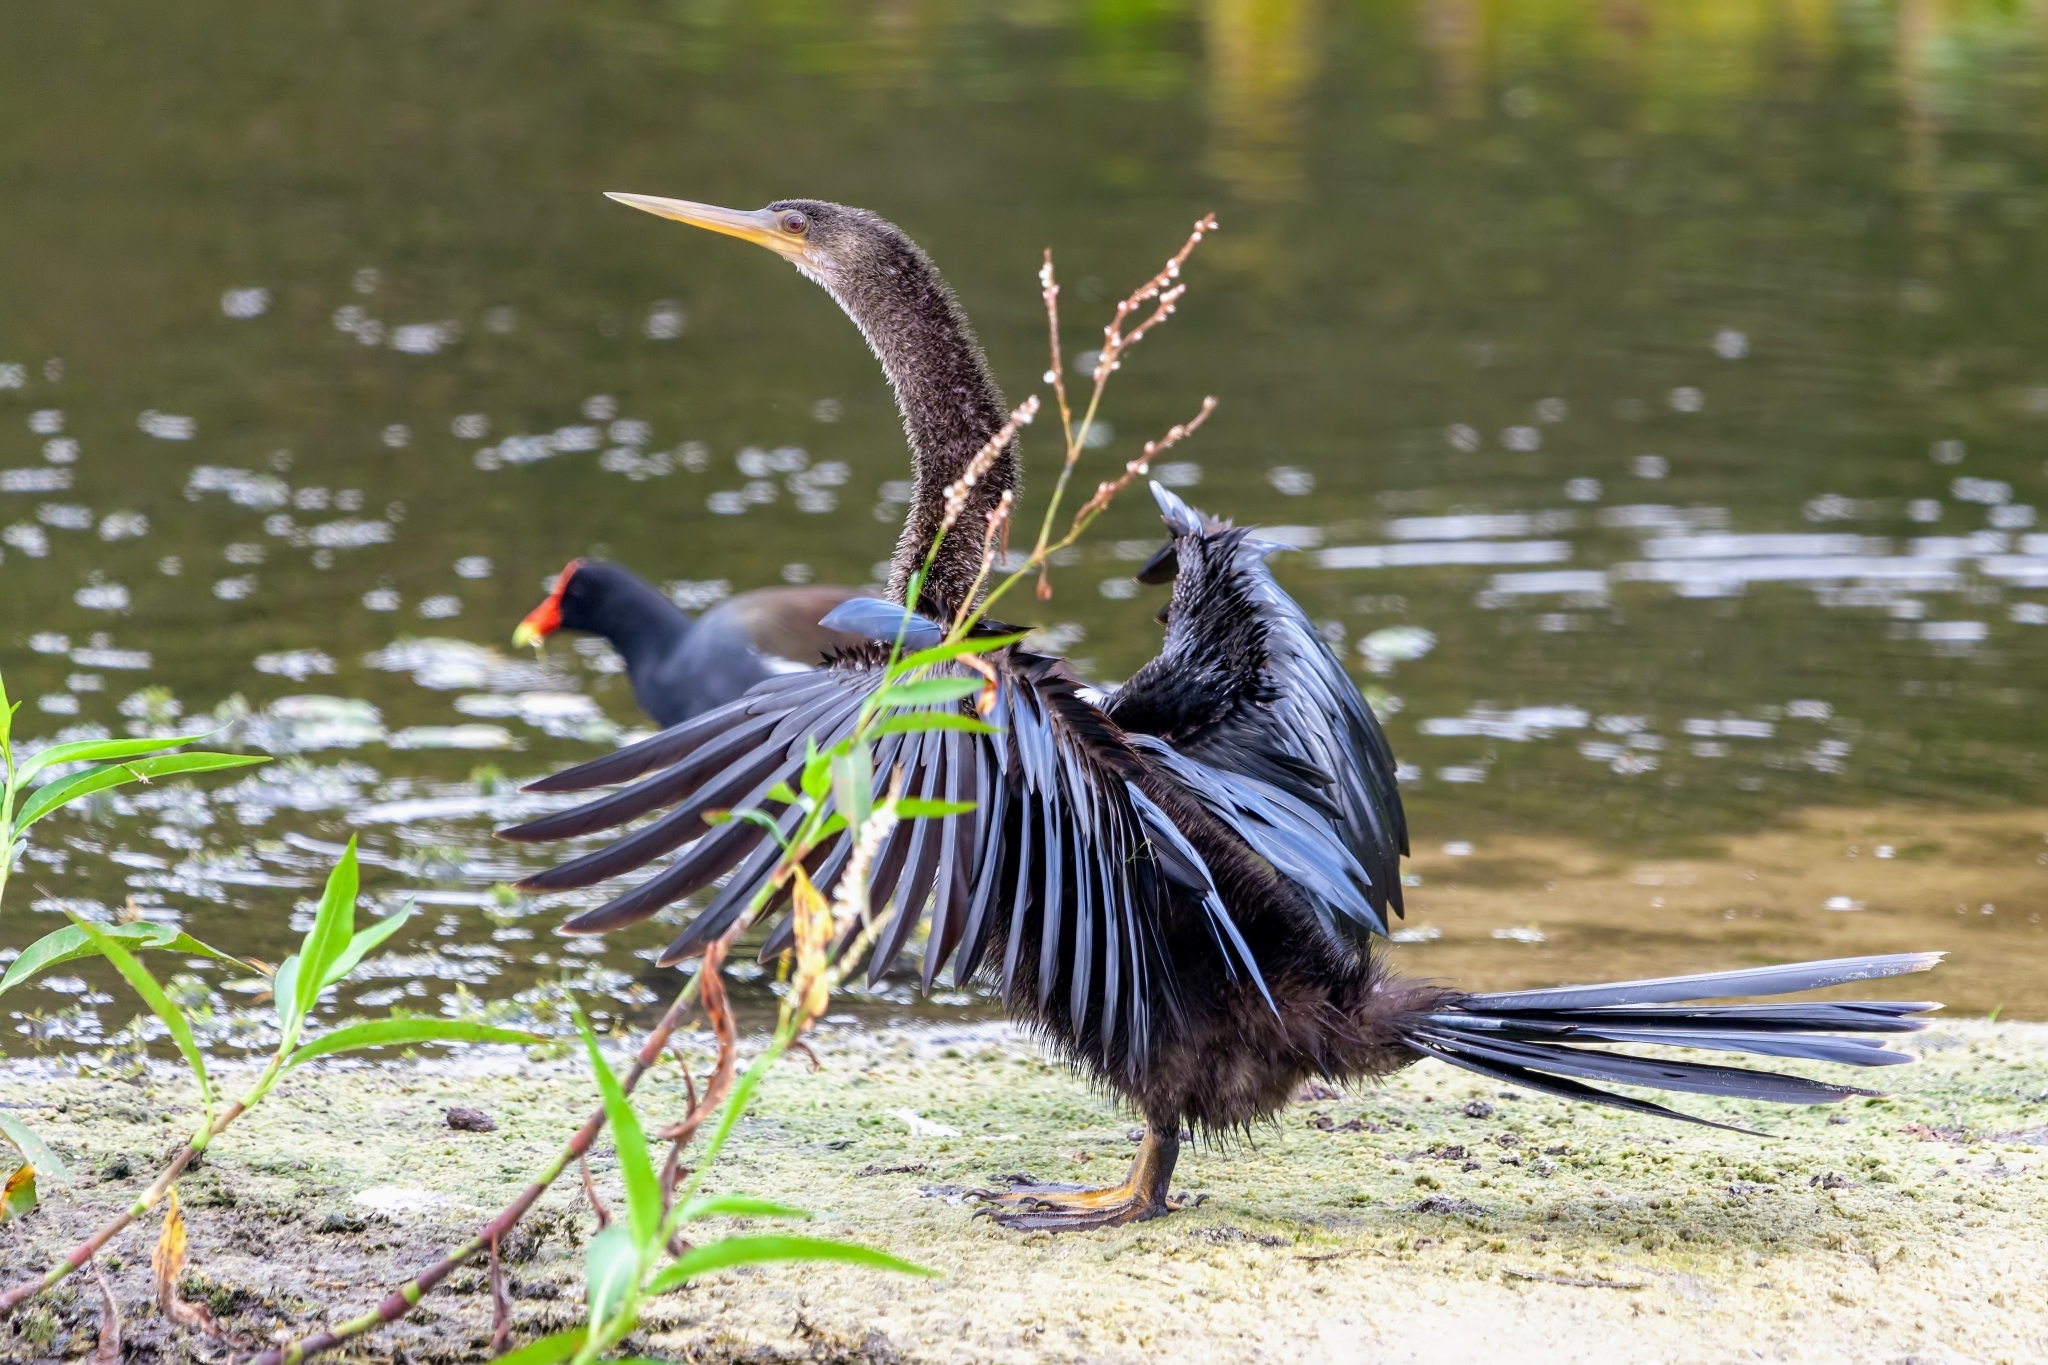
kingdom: Animalia
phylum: Chordata
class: Aves
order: Suliformes
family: Anhingidae
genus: Anhinga
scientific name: Anhinga anhinga
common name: Anhinga
